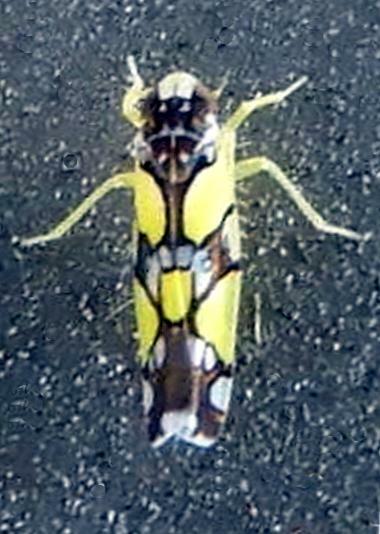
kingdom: Animalia
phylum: Arthropoda
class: Insecta
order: Hemiptera
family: Cicadellidae
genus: Protalebrella
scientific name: Protalebrella brasiliensis
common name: Brasilian leafhopper
